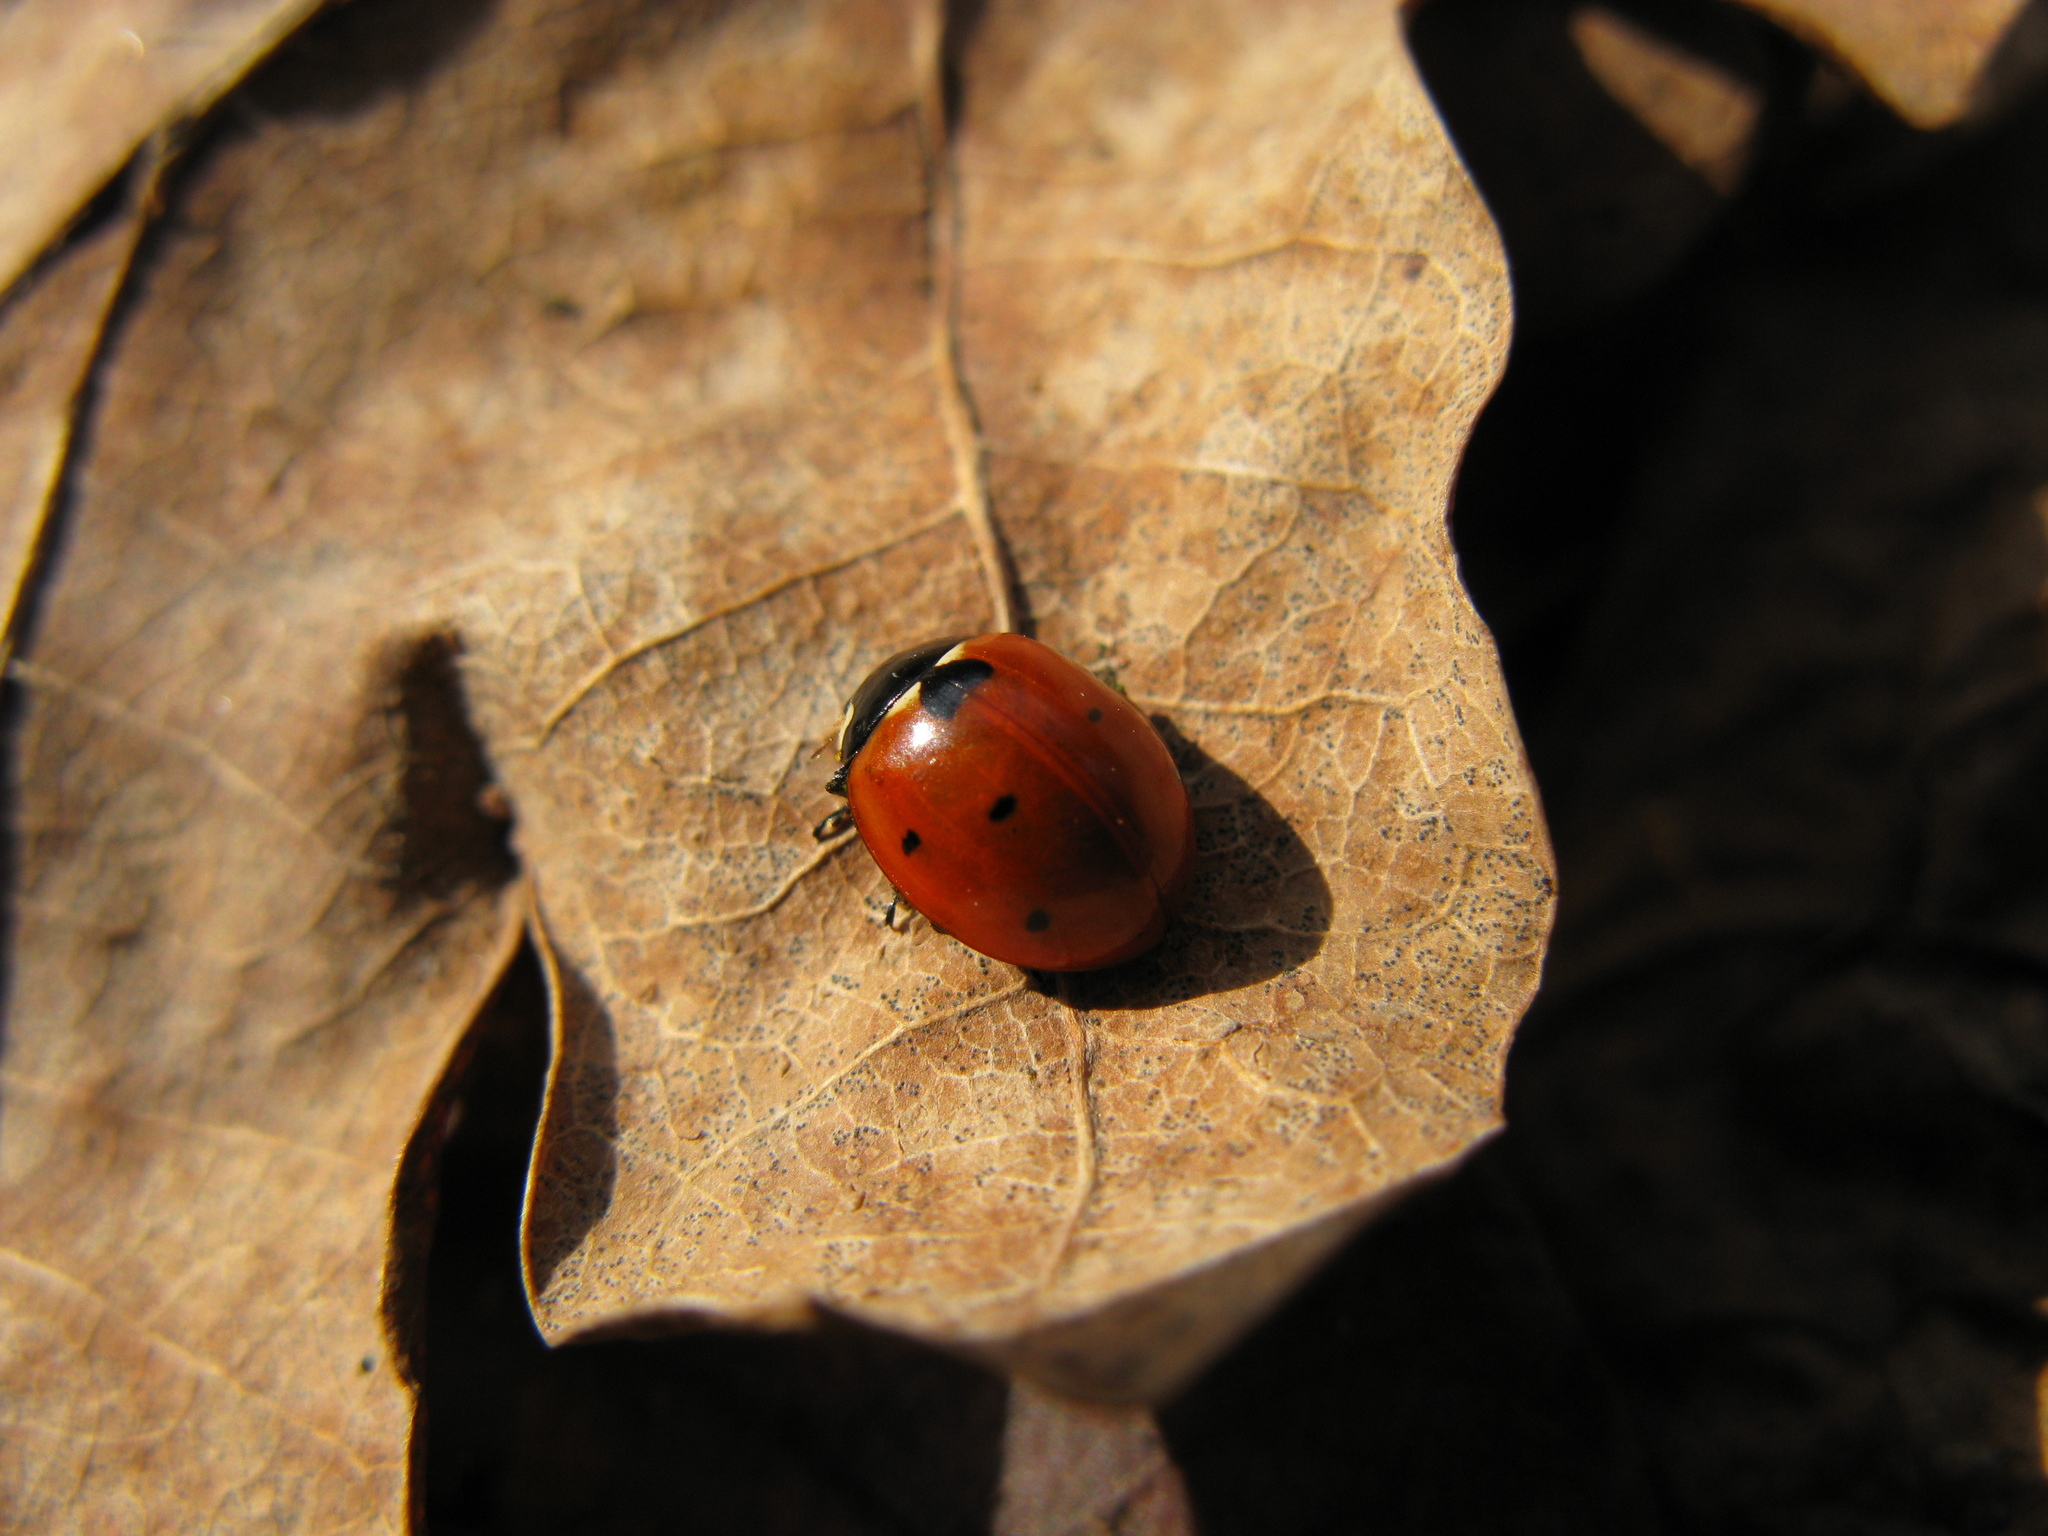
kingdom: Animalia
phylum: Arthropoda
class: Insecta
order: Coleoptera
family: Coccinellidae
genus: Coccinella
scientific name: Coccinella septempunctata
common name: Sevenspotted lady beetle
